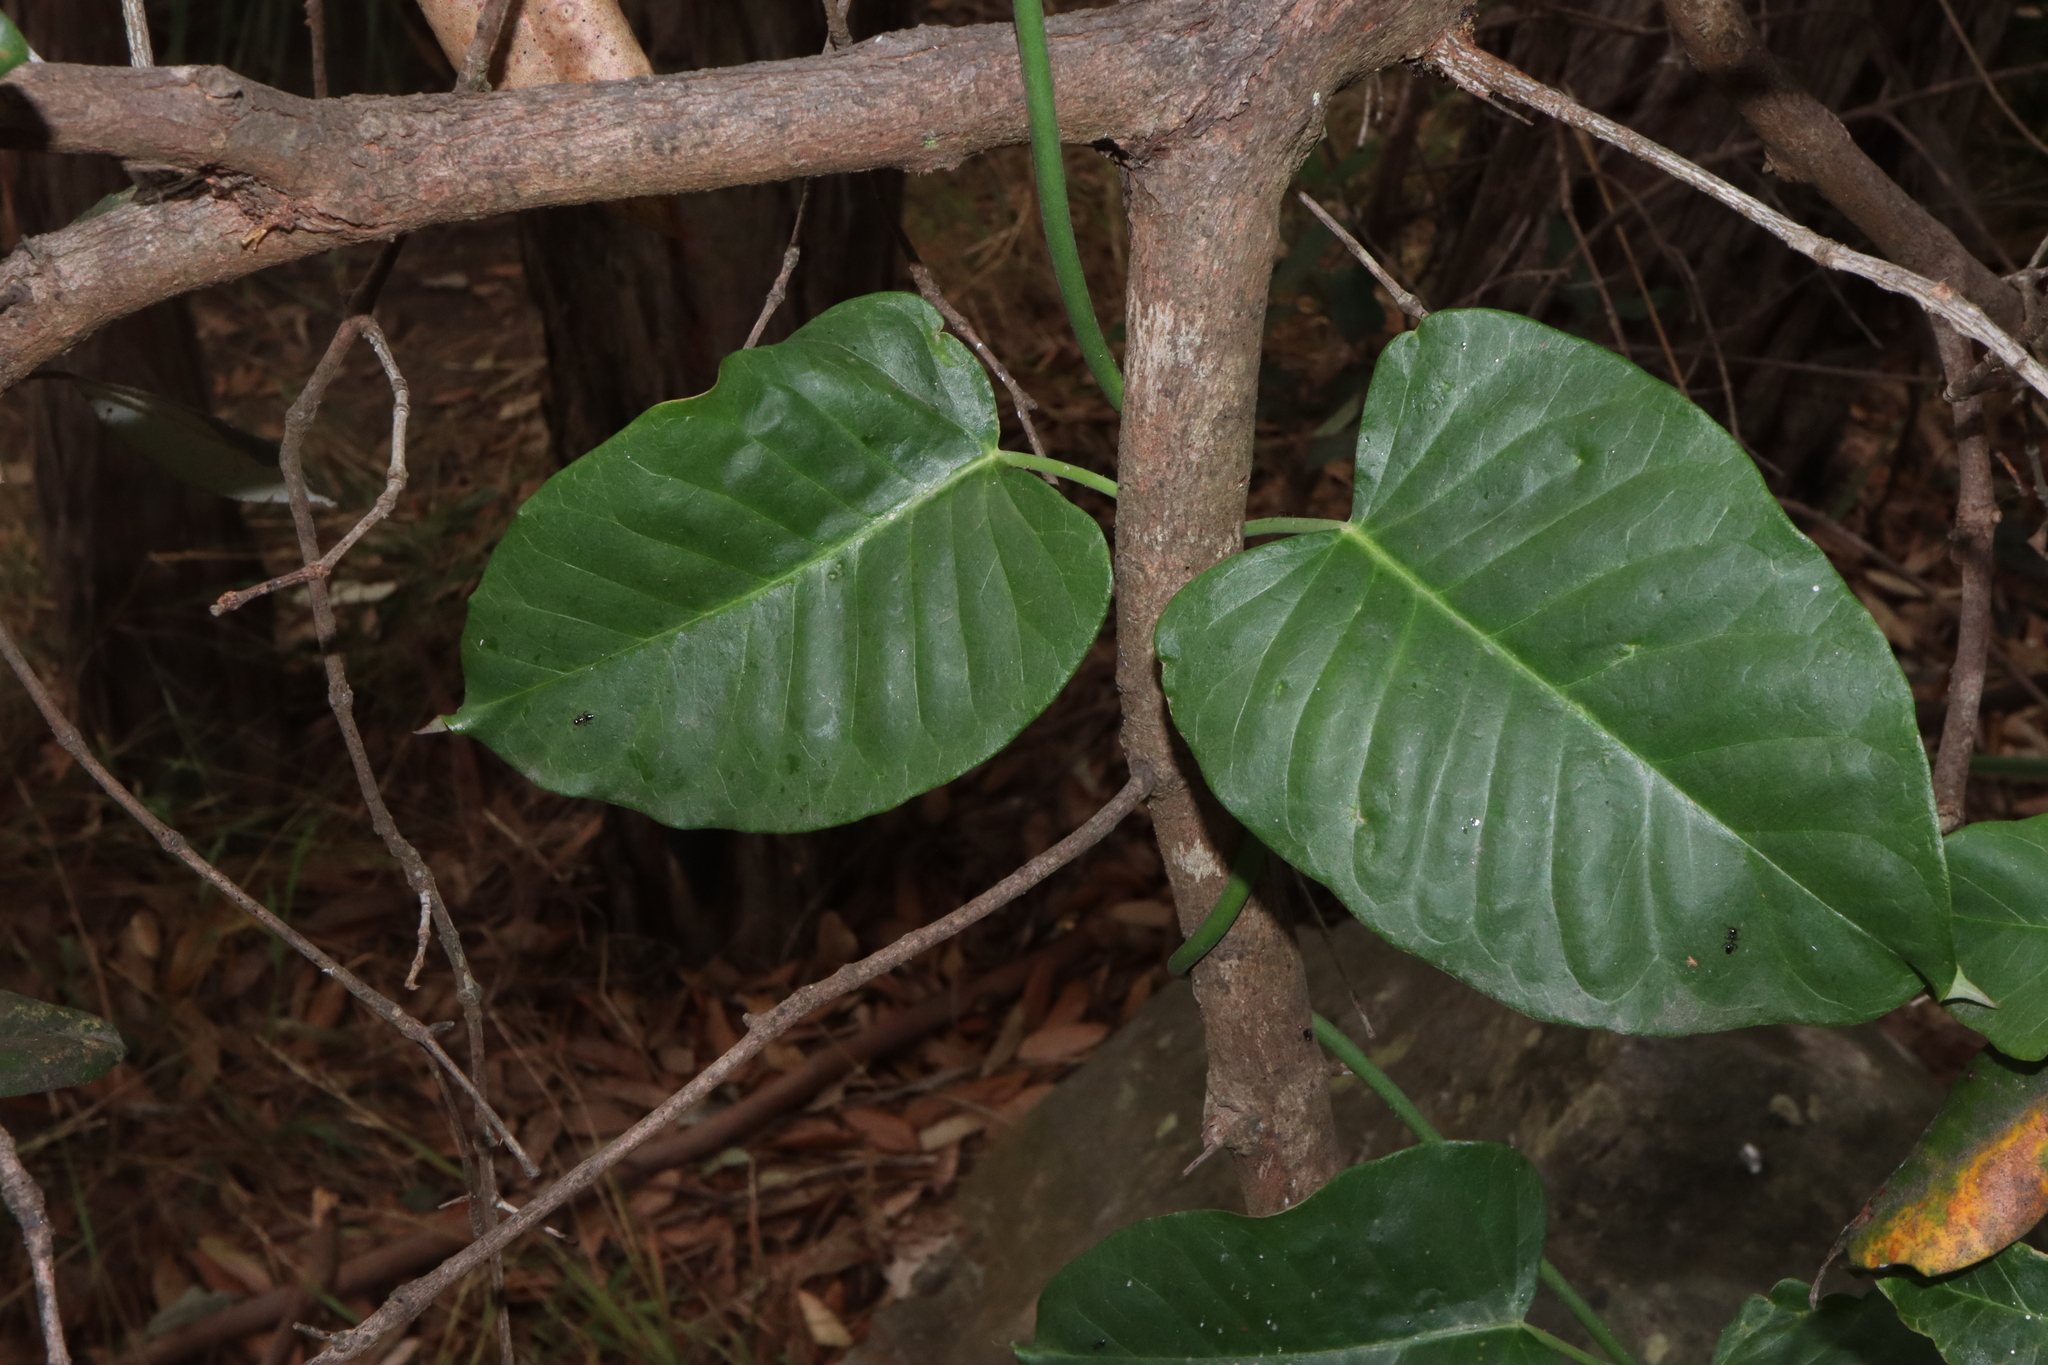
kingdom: Plantae
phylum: Tracheophyta
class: Magnoliopsida
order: Gentianales
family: Apocynaceae
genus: Leichhardtia
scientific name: Leichhardtia rostrata
